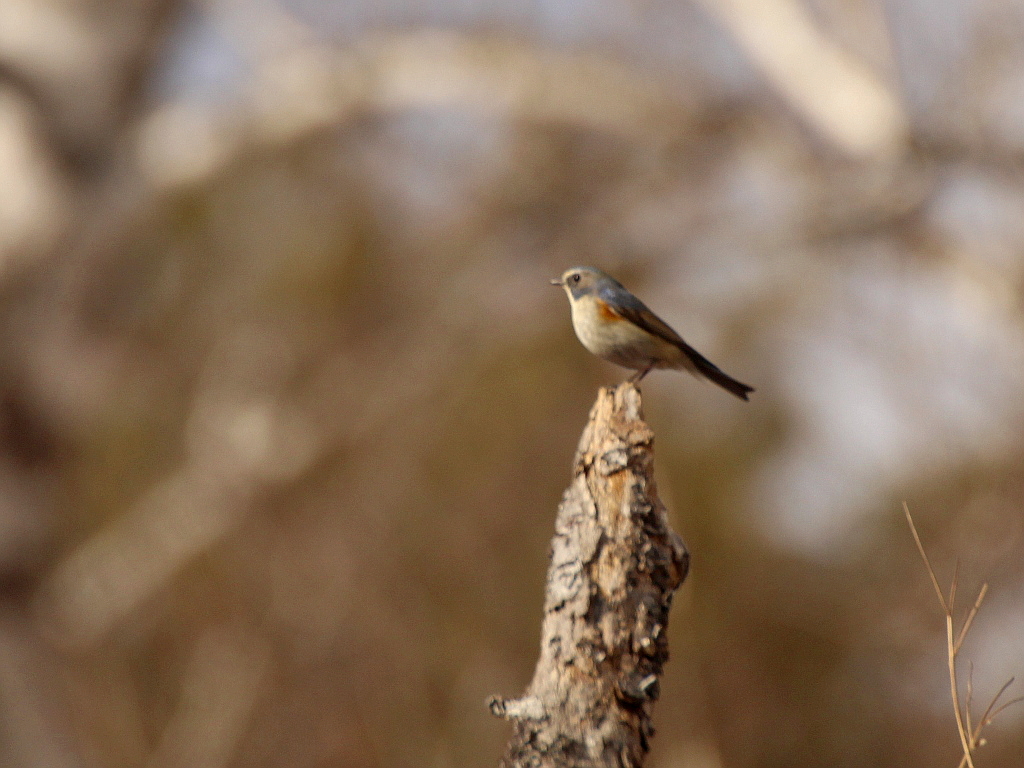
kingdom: Animalia
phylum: Chordata
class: Aves
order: Passeriformes
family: Muscicapidae
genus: Tarsiger
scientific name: Tarsiger cyanurus
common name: Red-flanked bluetail
